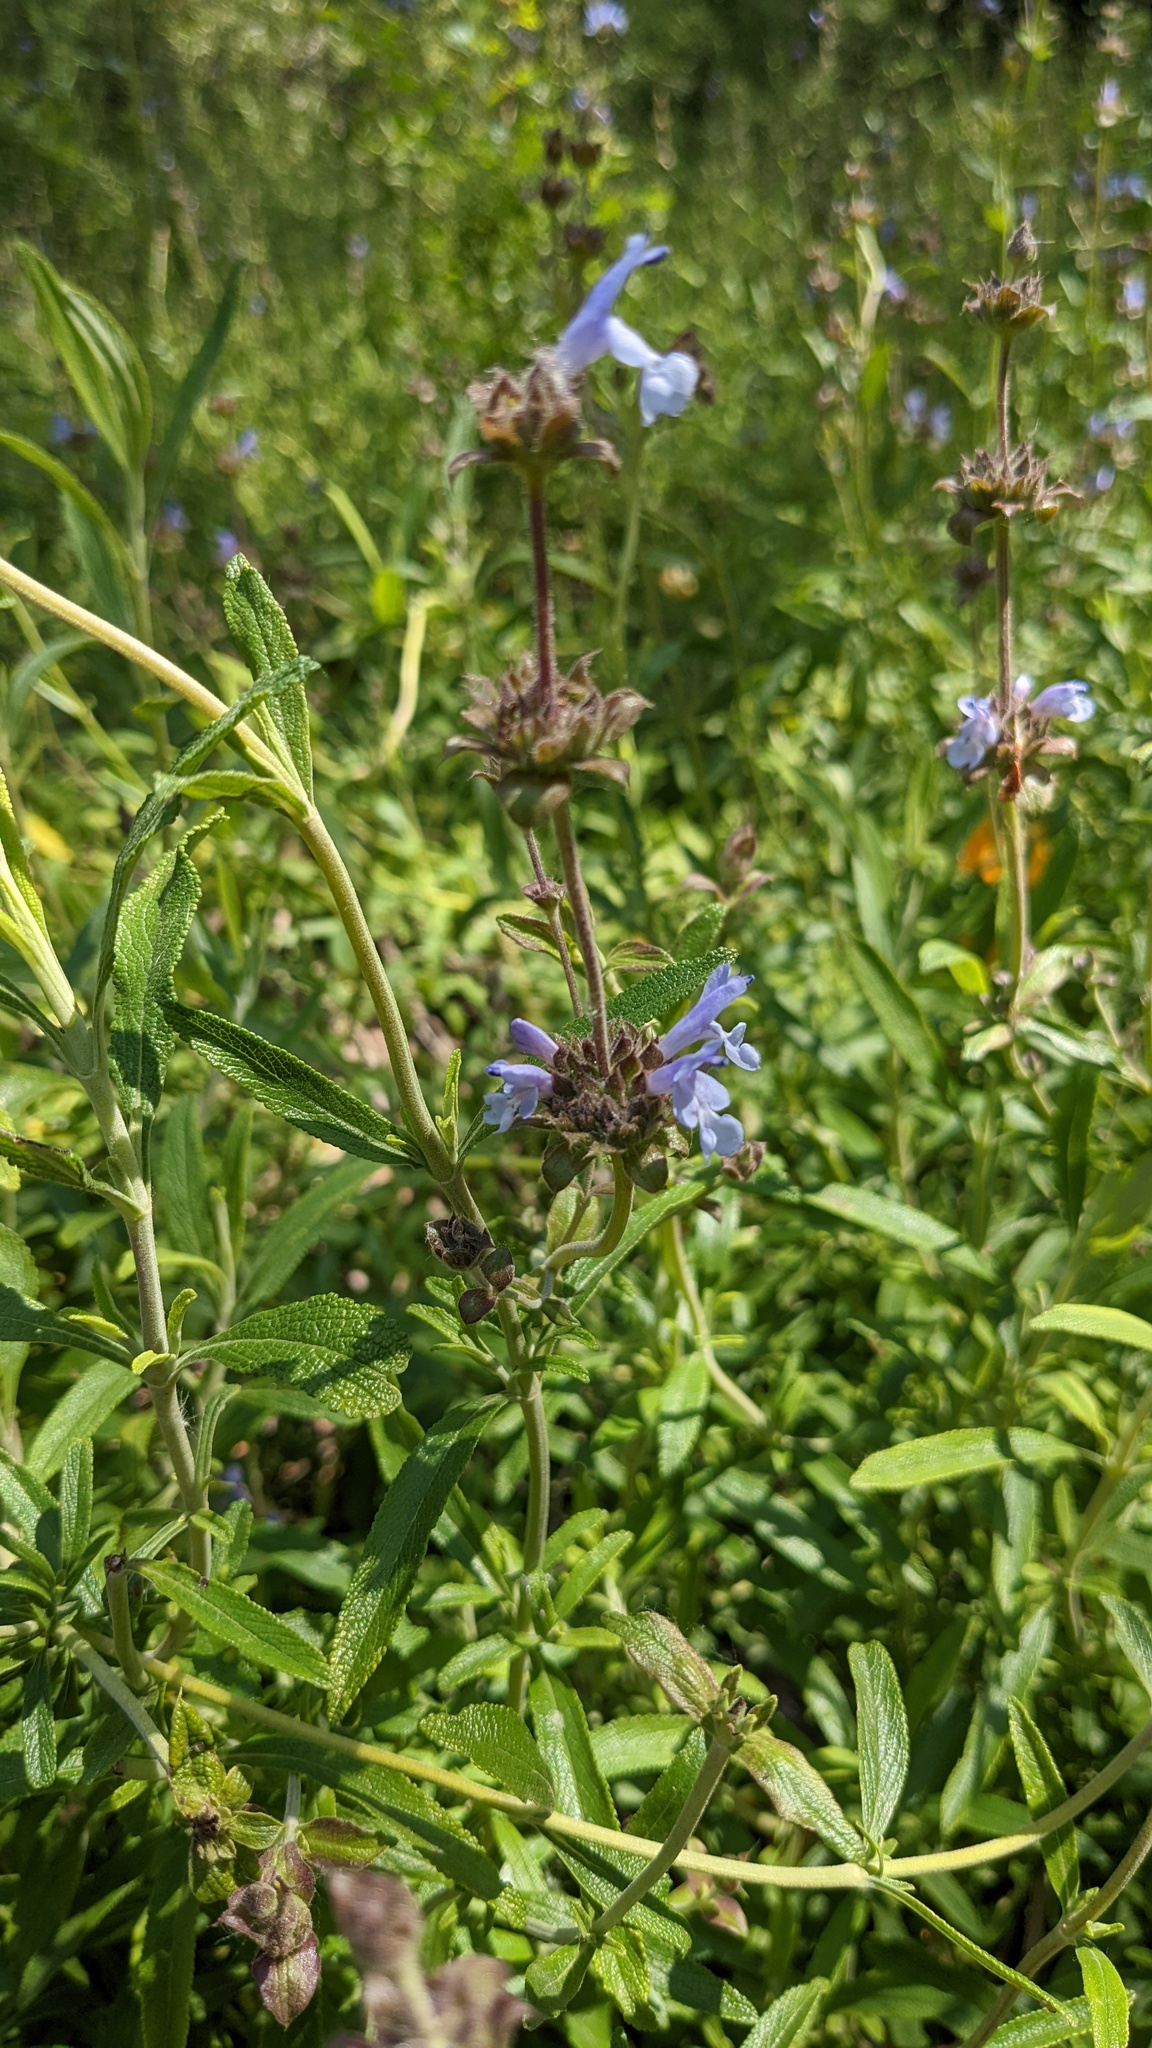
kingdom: Plantae
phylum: Tracheophyta
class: Magnoliopsida
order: Lamiales
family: Lamiaceae
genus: Salvia
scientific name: Salvia mellifera
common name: Black sage
